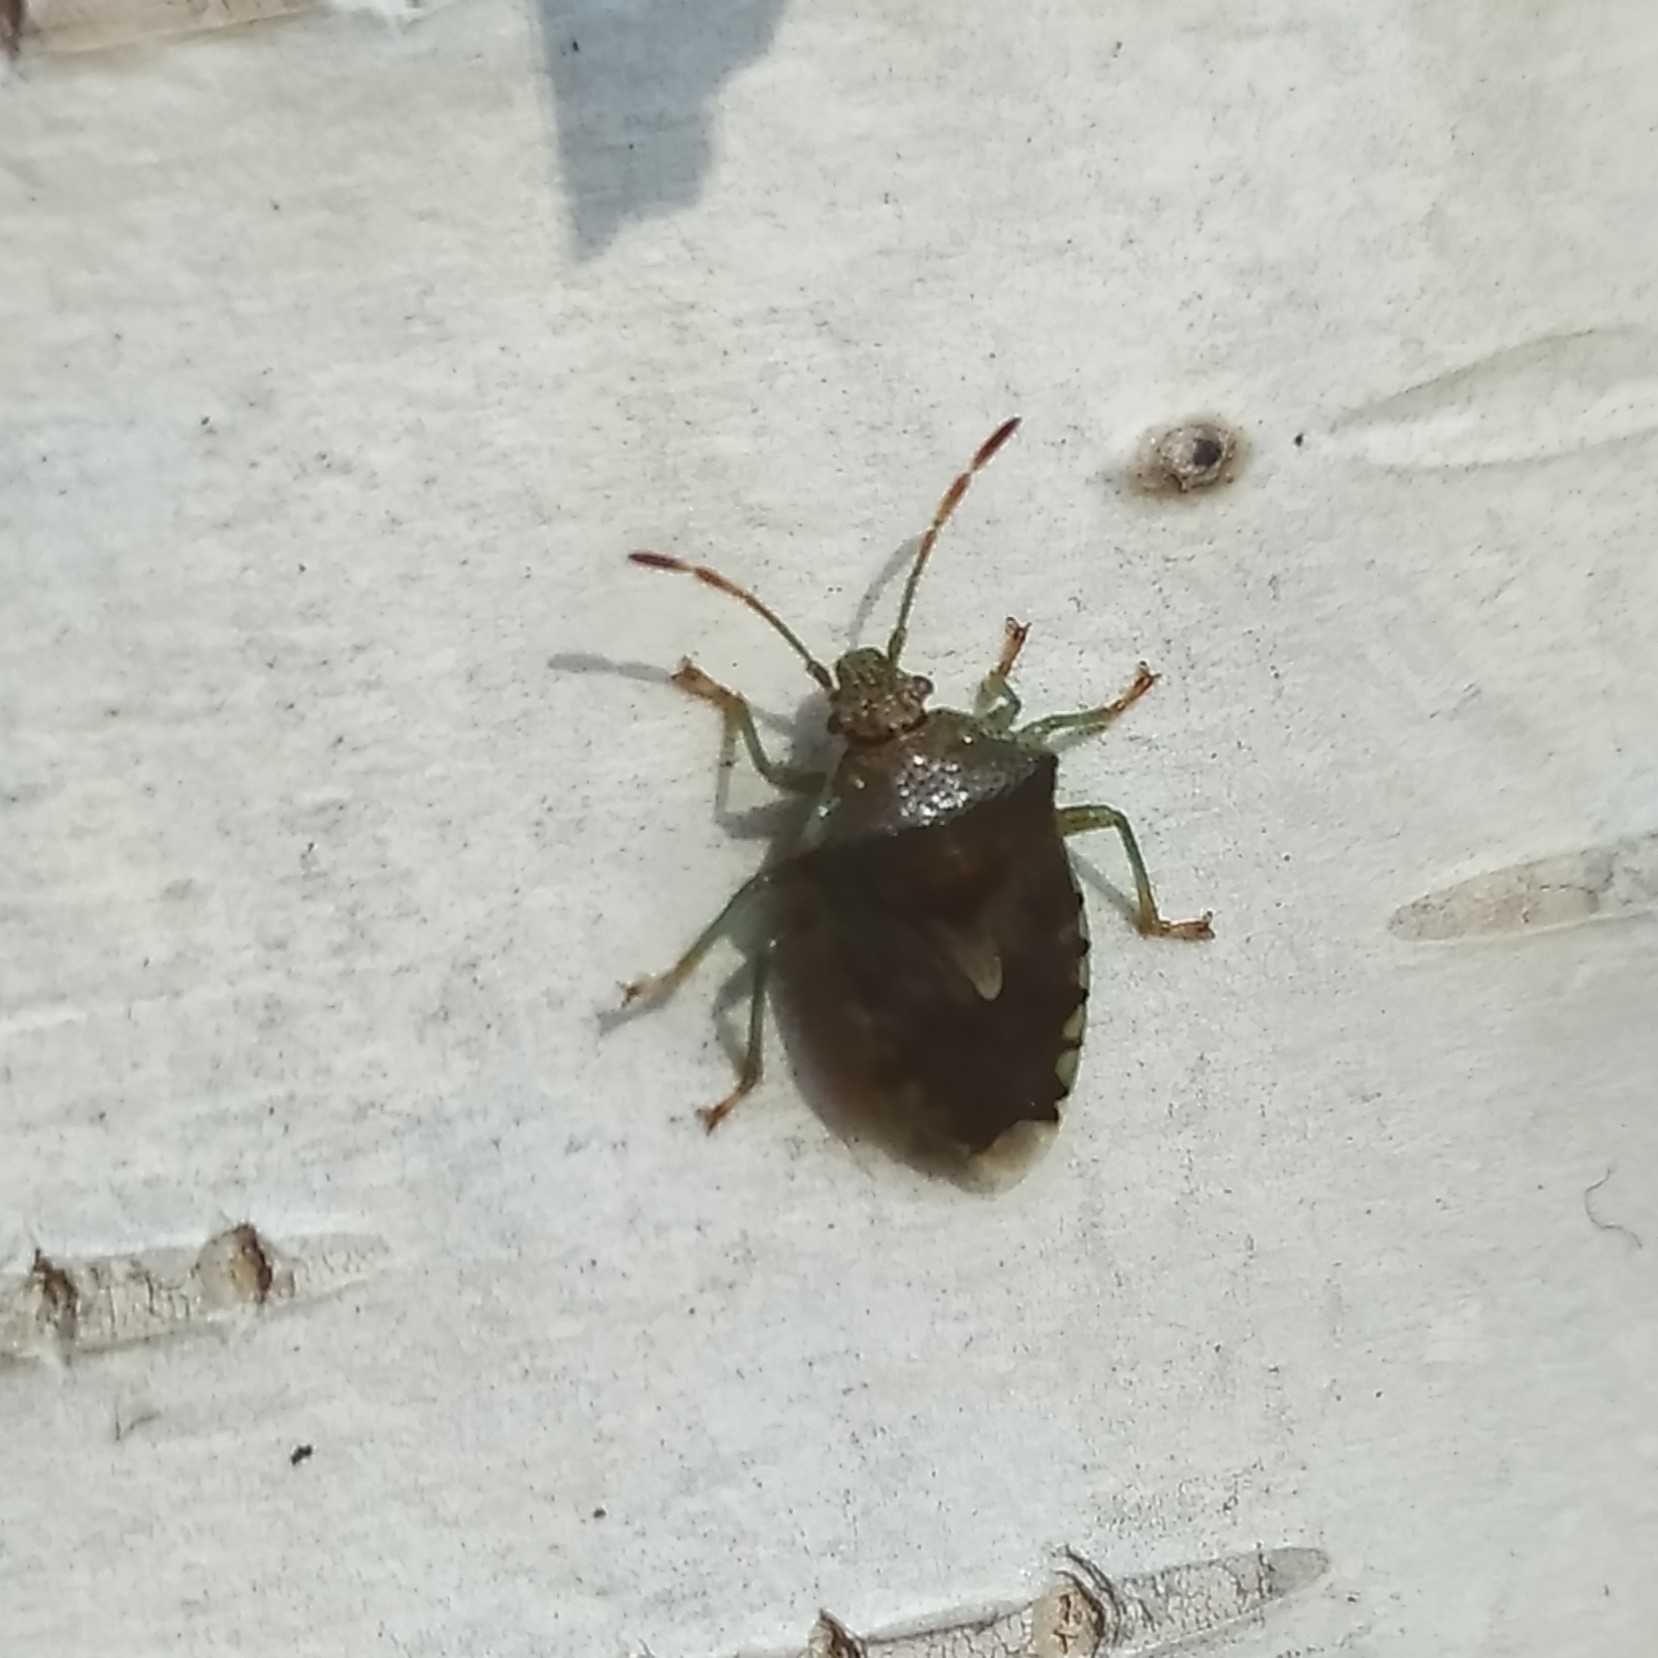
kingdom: Animalia
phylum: Arthropoda
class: Insecta
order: Hemiptera
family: Acanthosomatidae
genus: Elasmucha
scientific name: Elasmucha grisea
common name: Parent bug
